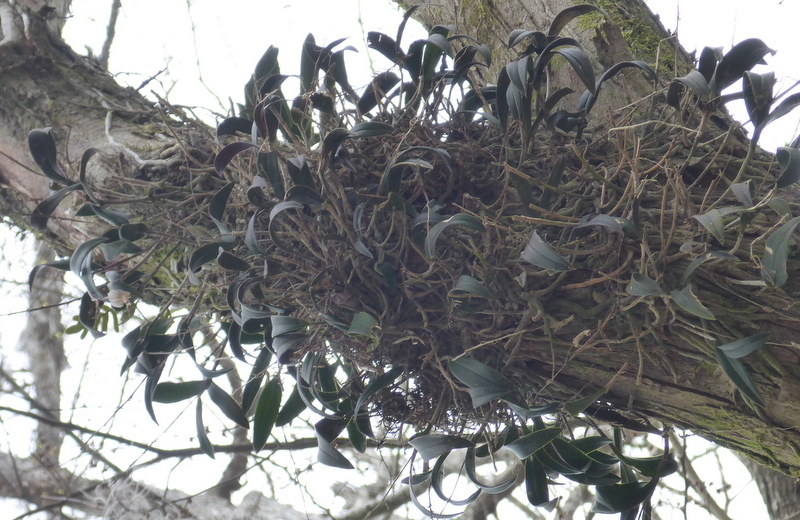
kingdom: Plantae
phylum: Tracheophyta
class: Liliopsida
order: Asparagales
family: Orchidaceae
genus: Epidendrum
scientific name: Epidendrum conopseum
